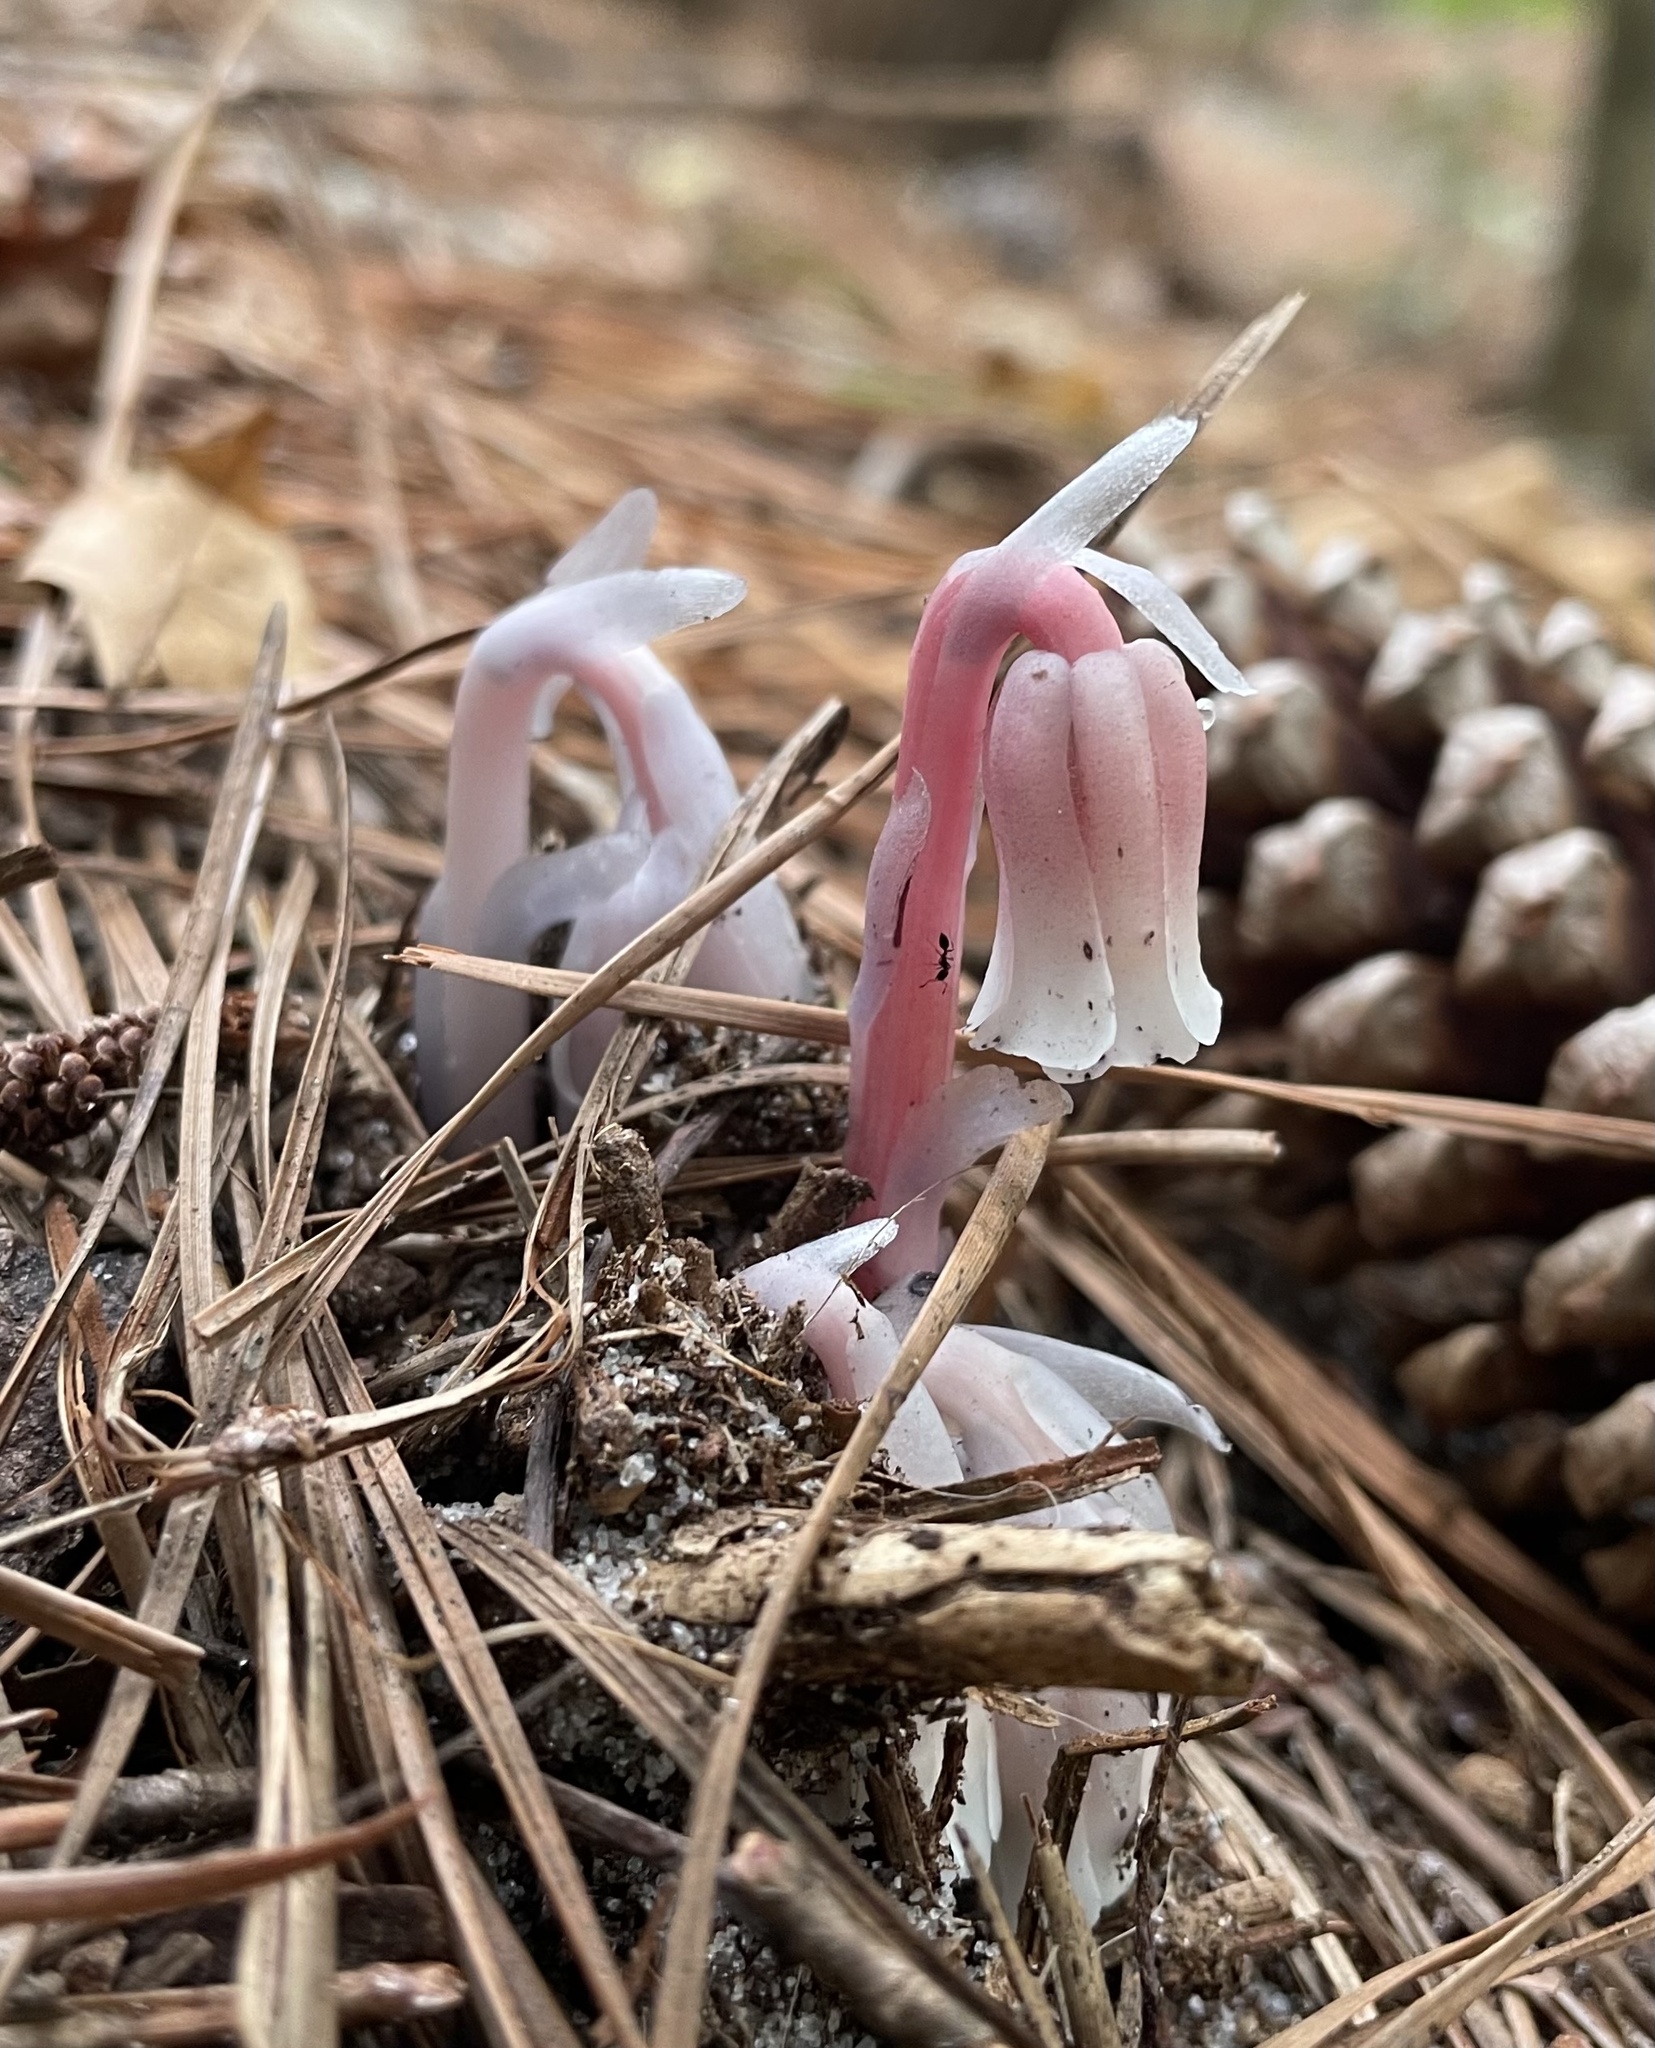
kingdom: Plantae
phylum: Tracheophyta
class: Magnoliopsida
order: Ericales
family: Ericaceae
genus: Monotropa
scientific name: Monotropa uniflora
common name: Convulsion root
